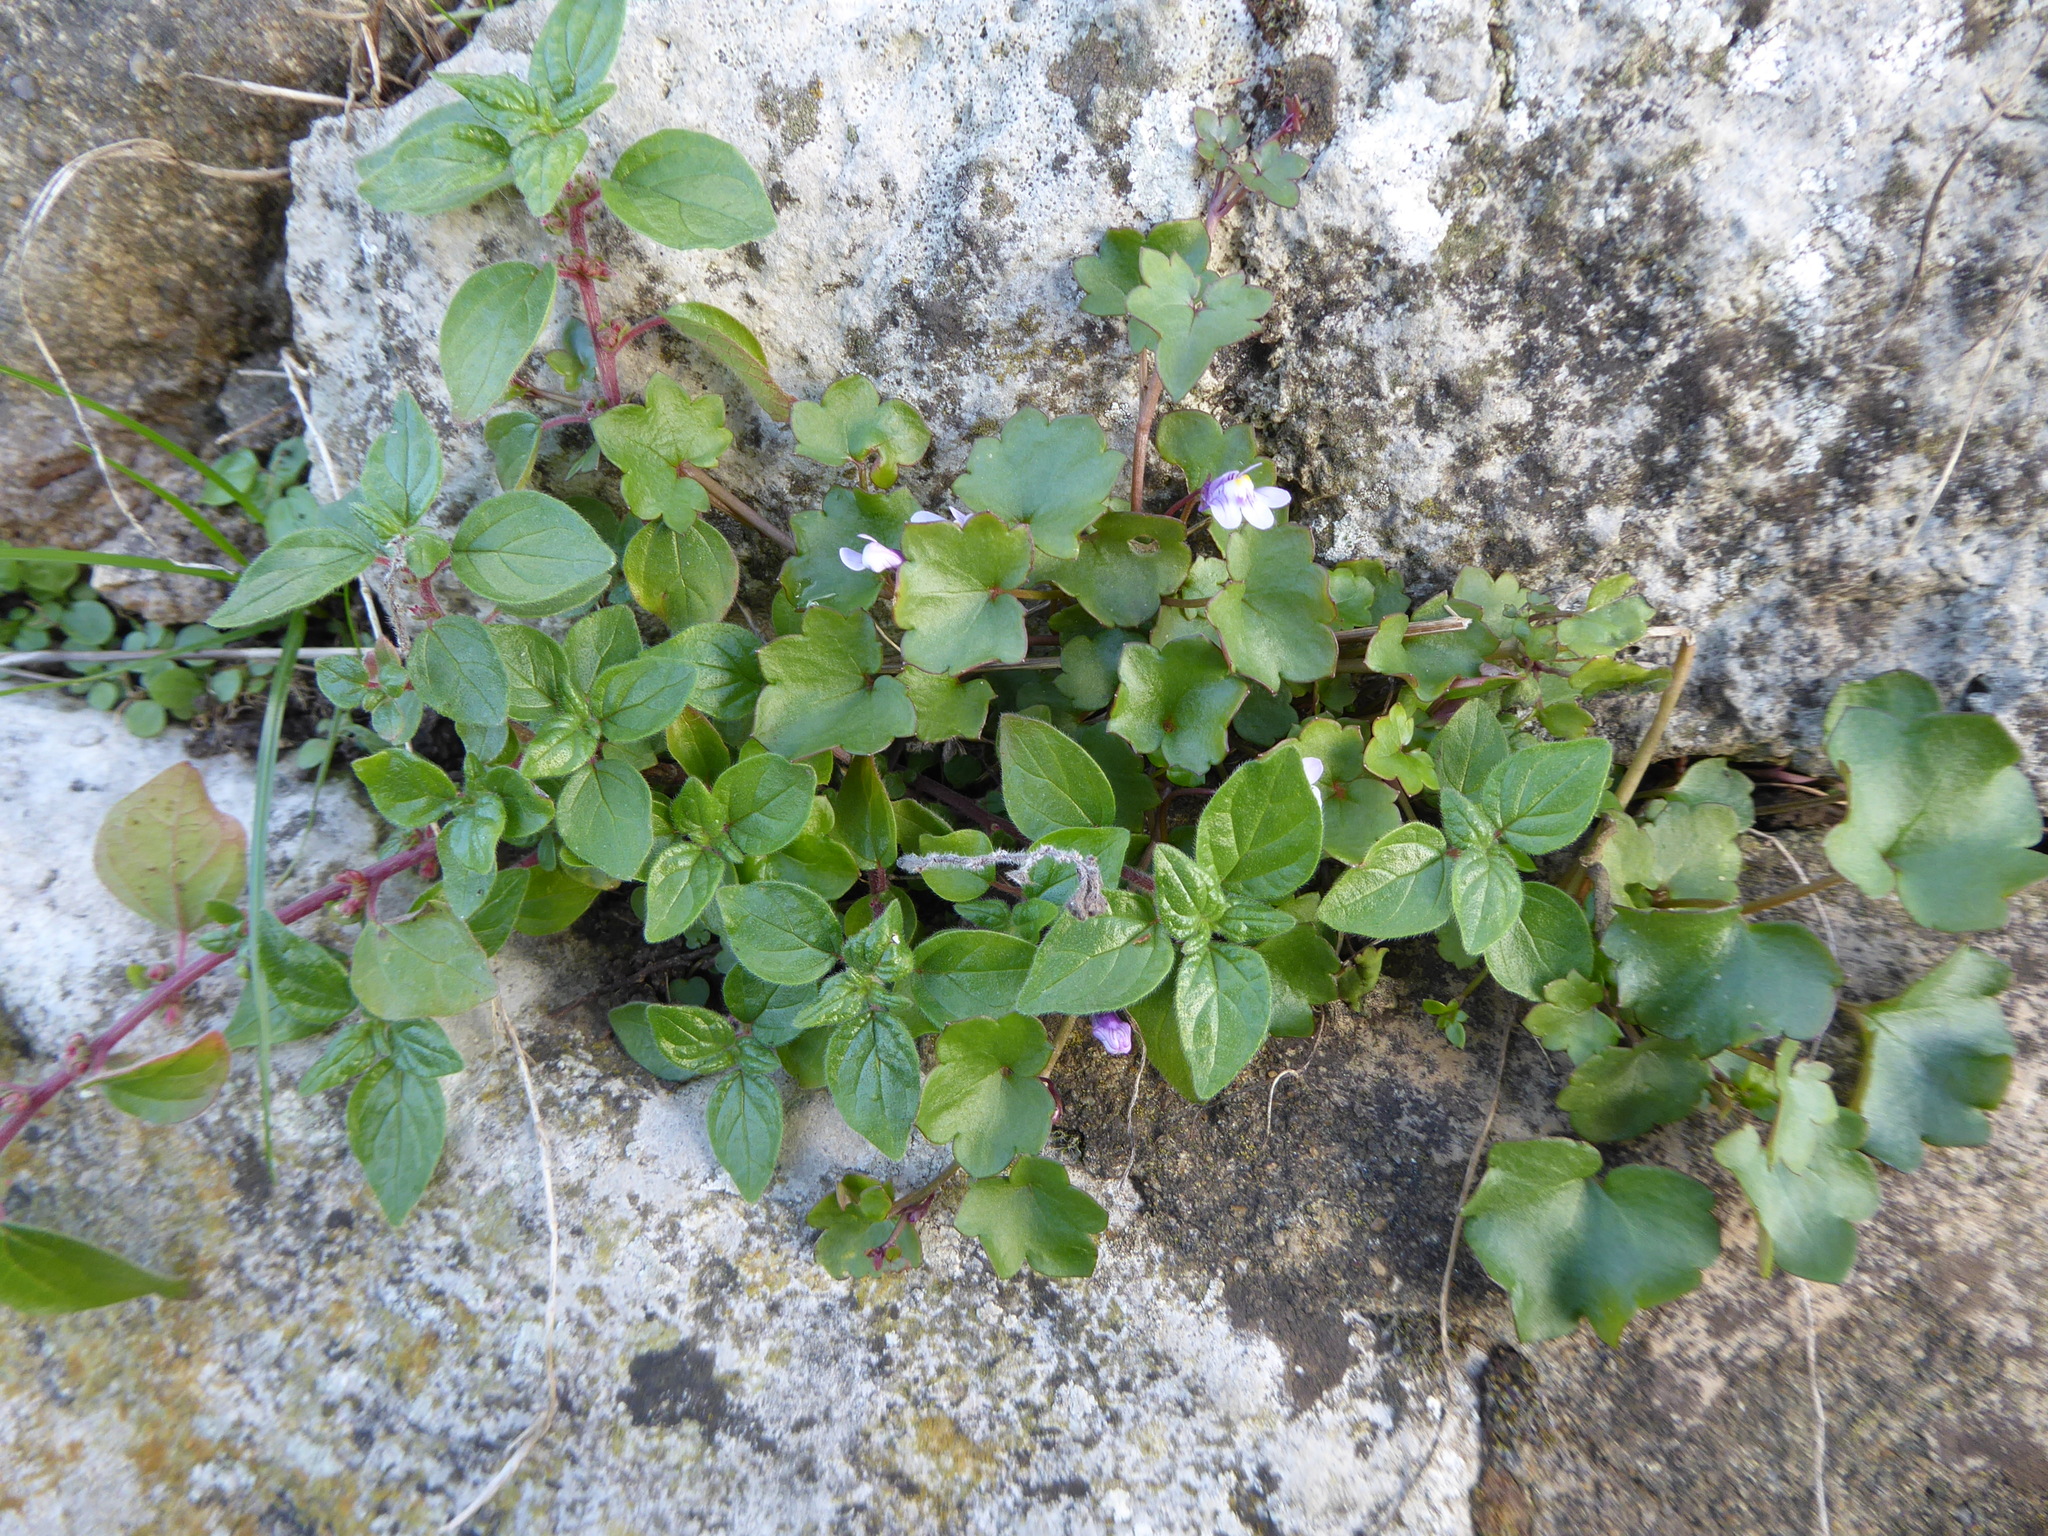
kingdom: Plantae
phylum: Tracheophyta
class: Magnoliopsida
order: Lamiales
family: Plantaginaceae
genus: Cymbalaria
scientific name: Cymbalaria muralis
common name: Ivy-leaved toadflax
